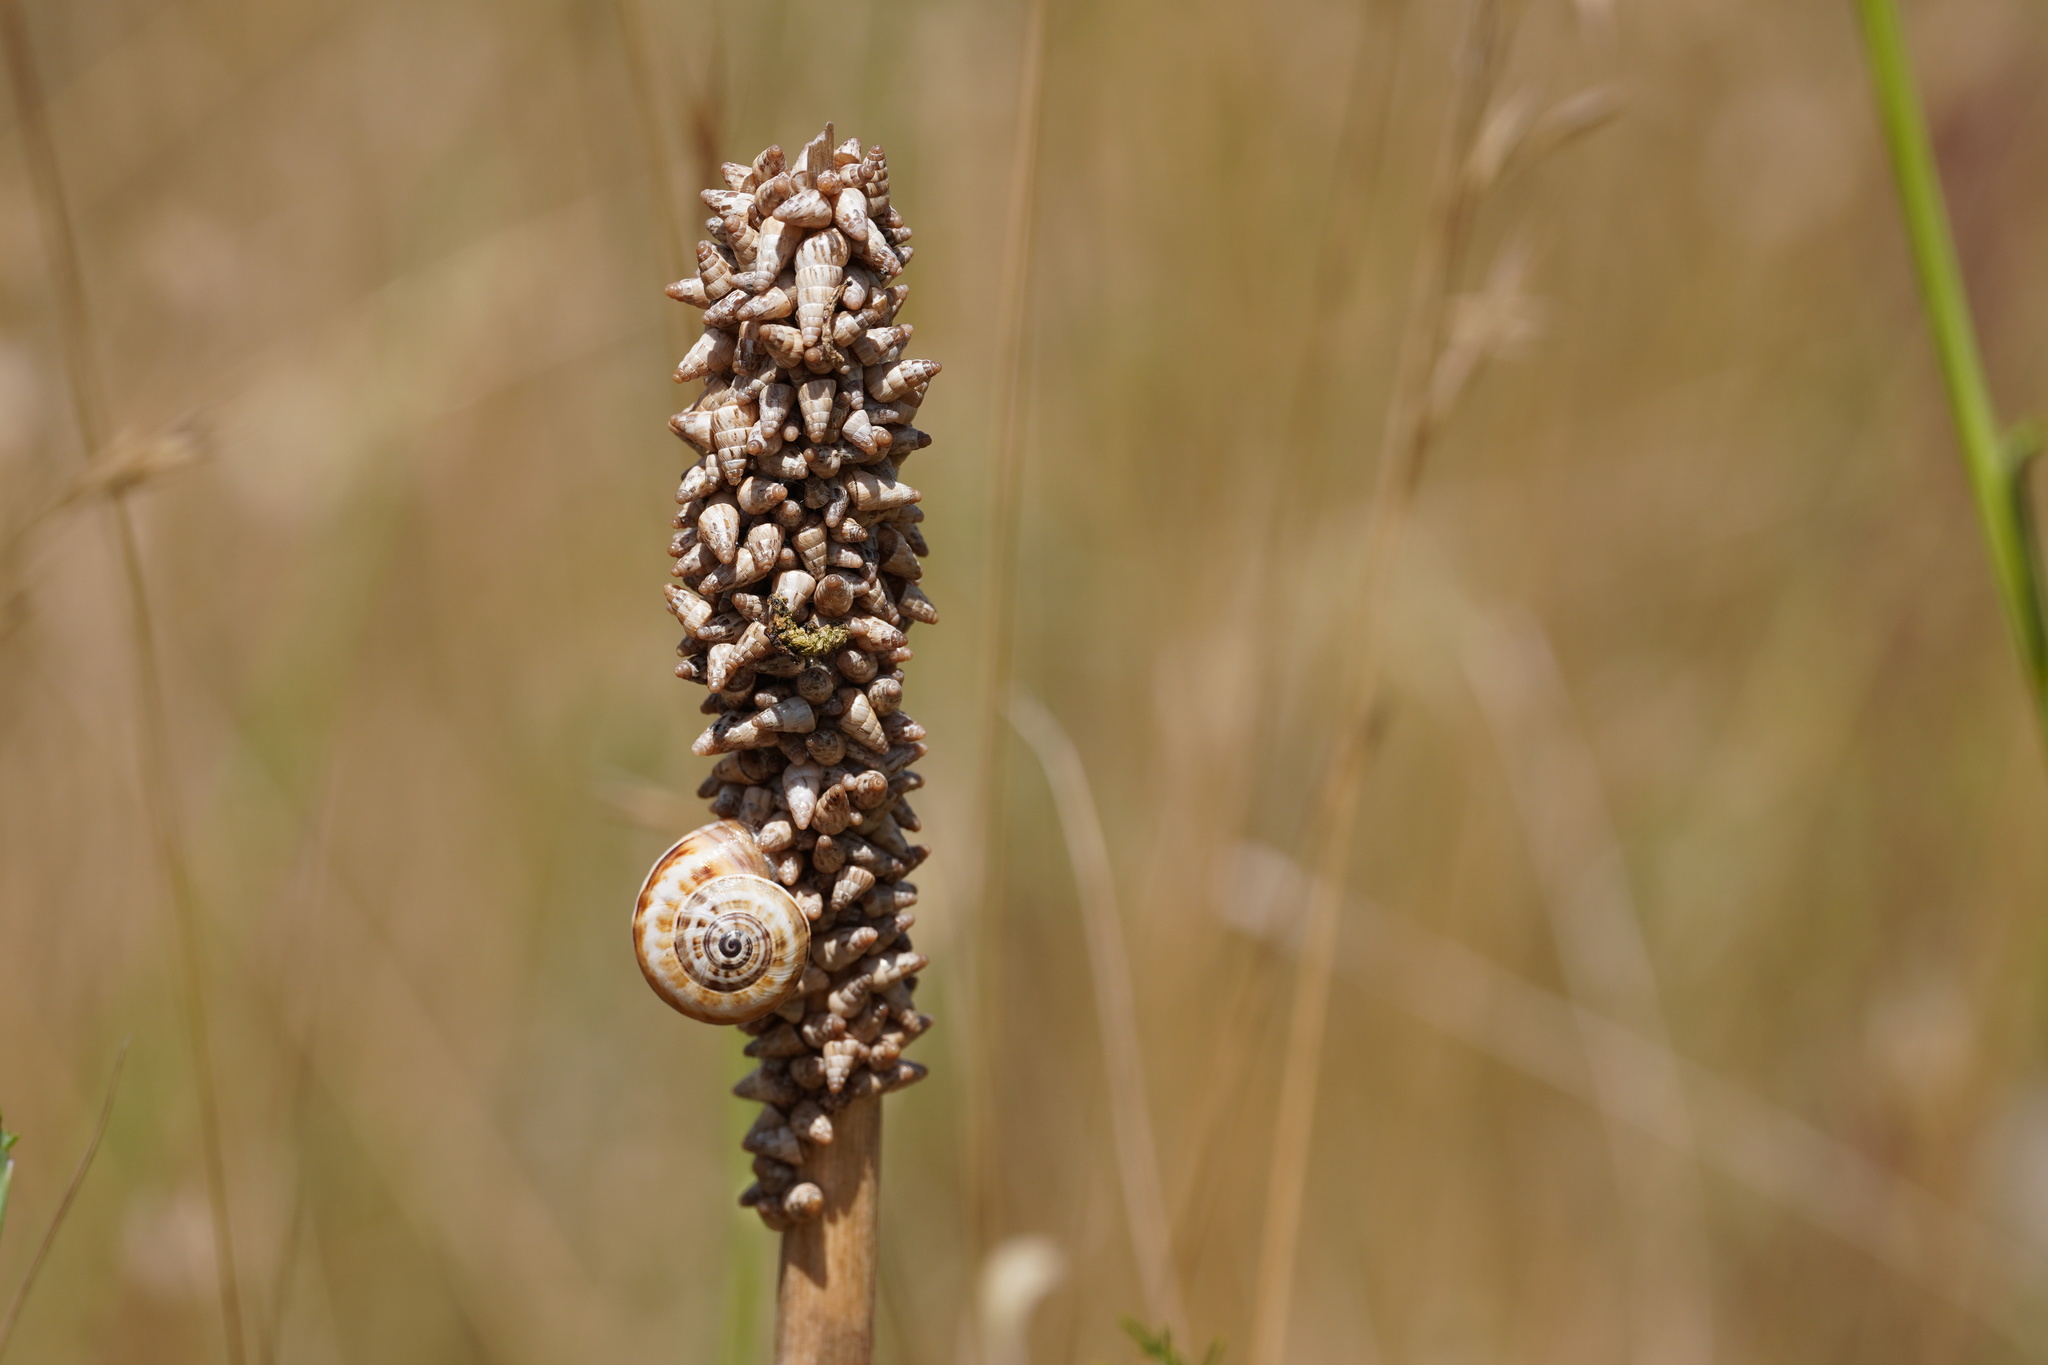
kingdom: Animalia
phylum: Mollusca
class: Gastropoda
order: Stylommatophora
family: Helicidae
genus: Theba
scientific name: Theba pisana
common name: White snail
